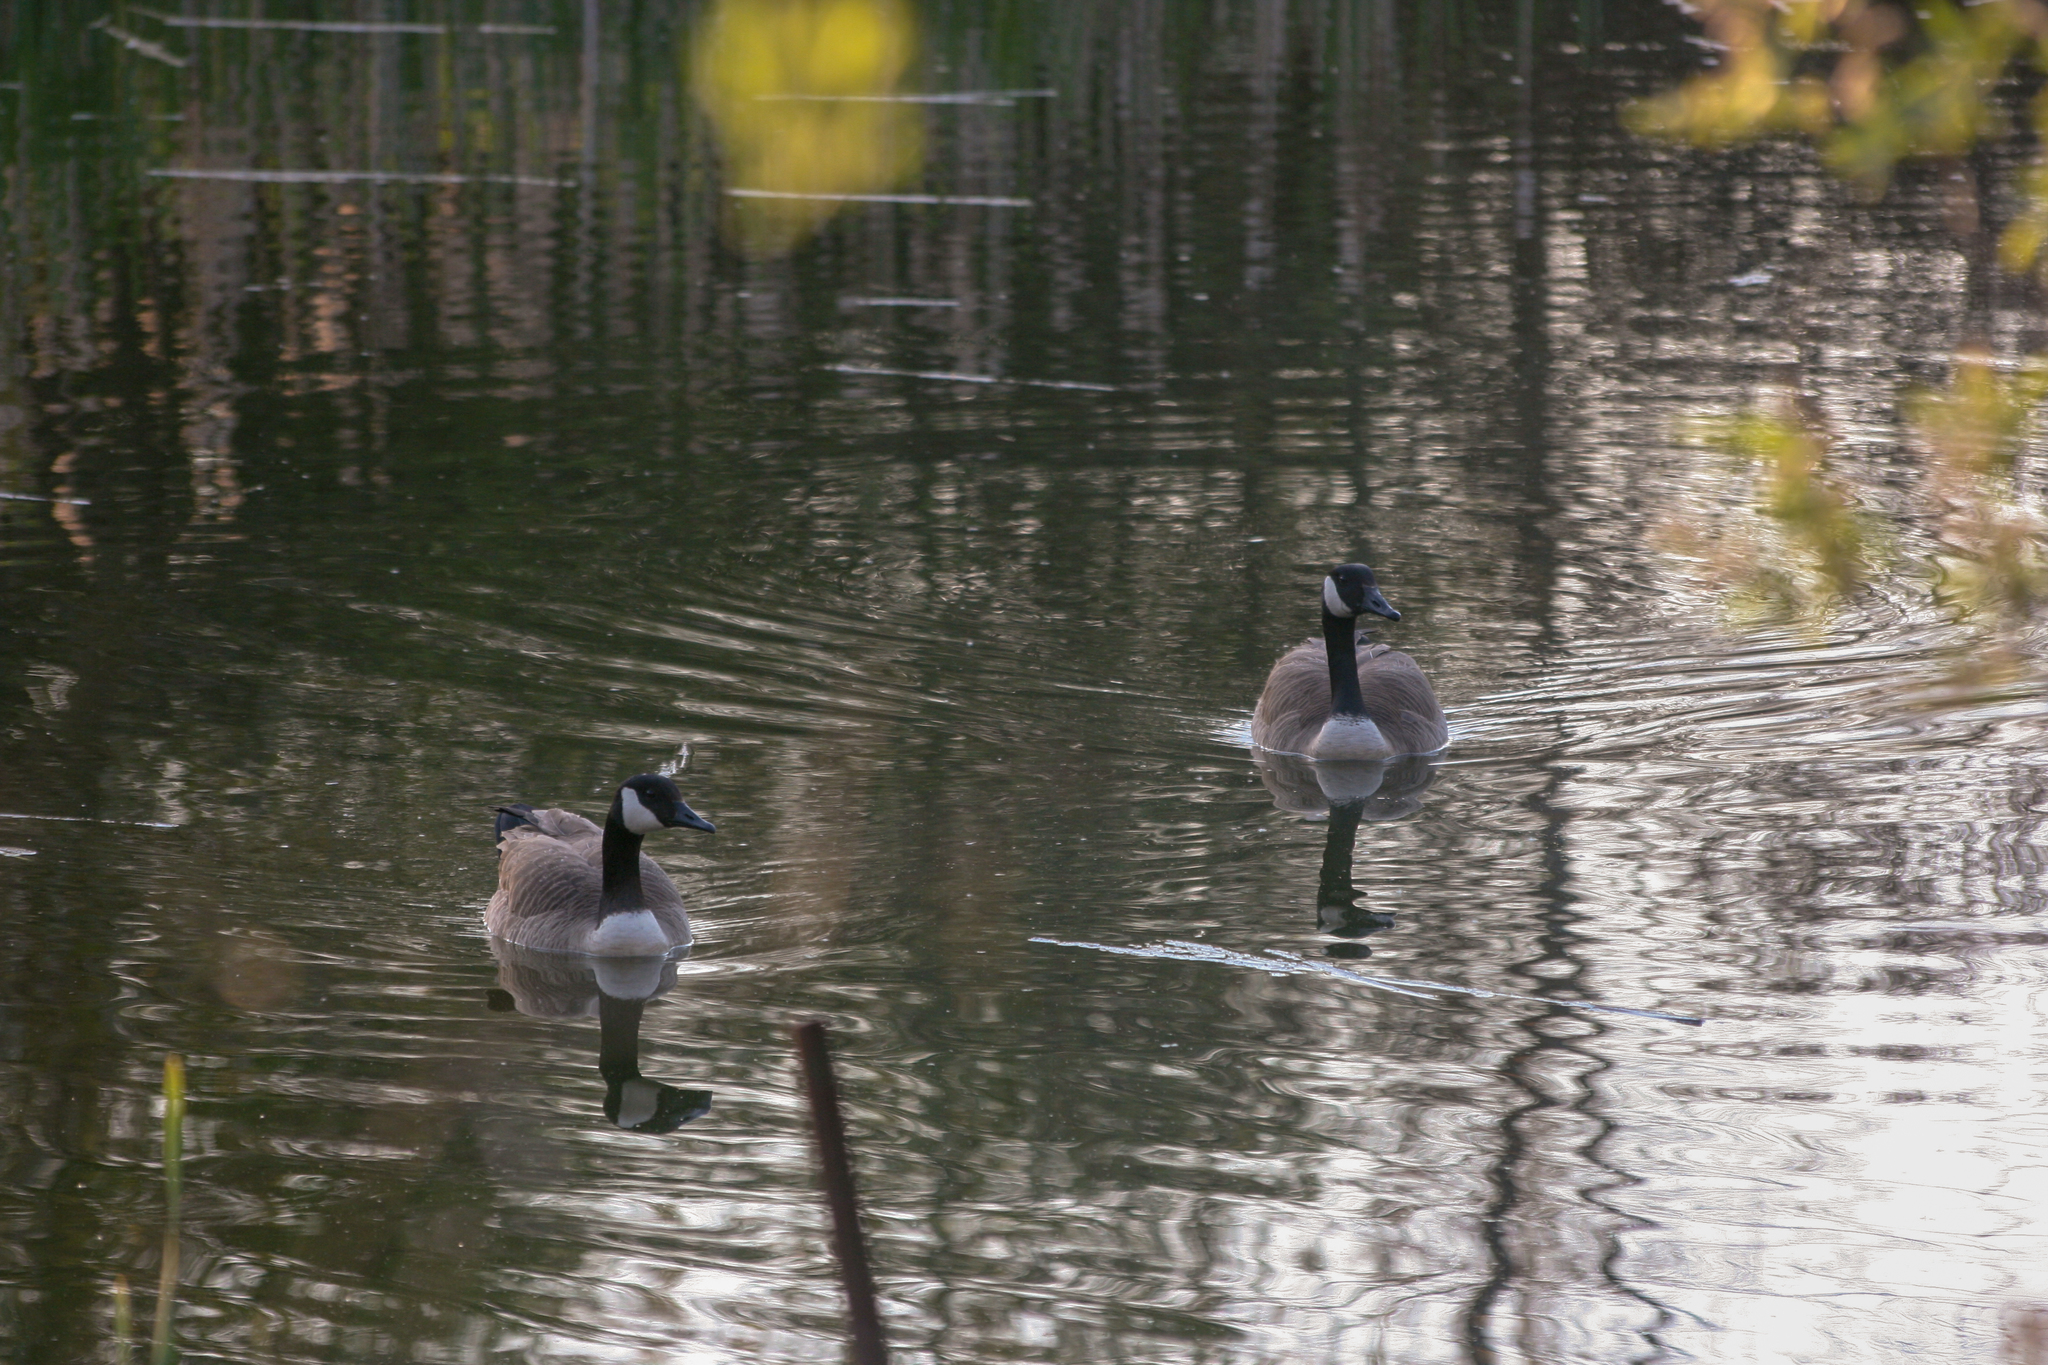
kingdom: Animalia
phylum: Chordata
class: Aves
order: Anseriformes
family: Anatidae
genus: Branta
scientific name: Branta canadensis
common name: Canada goose
